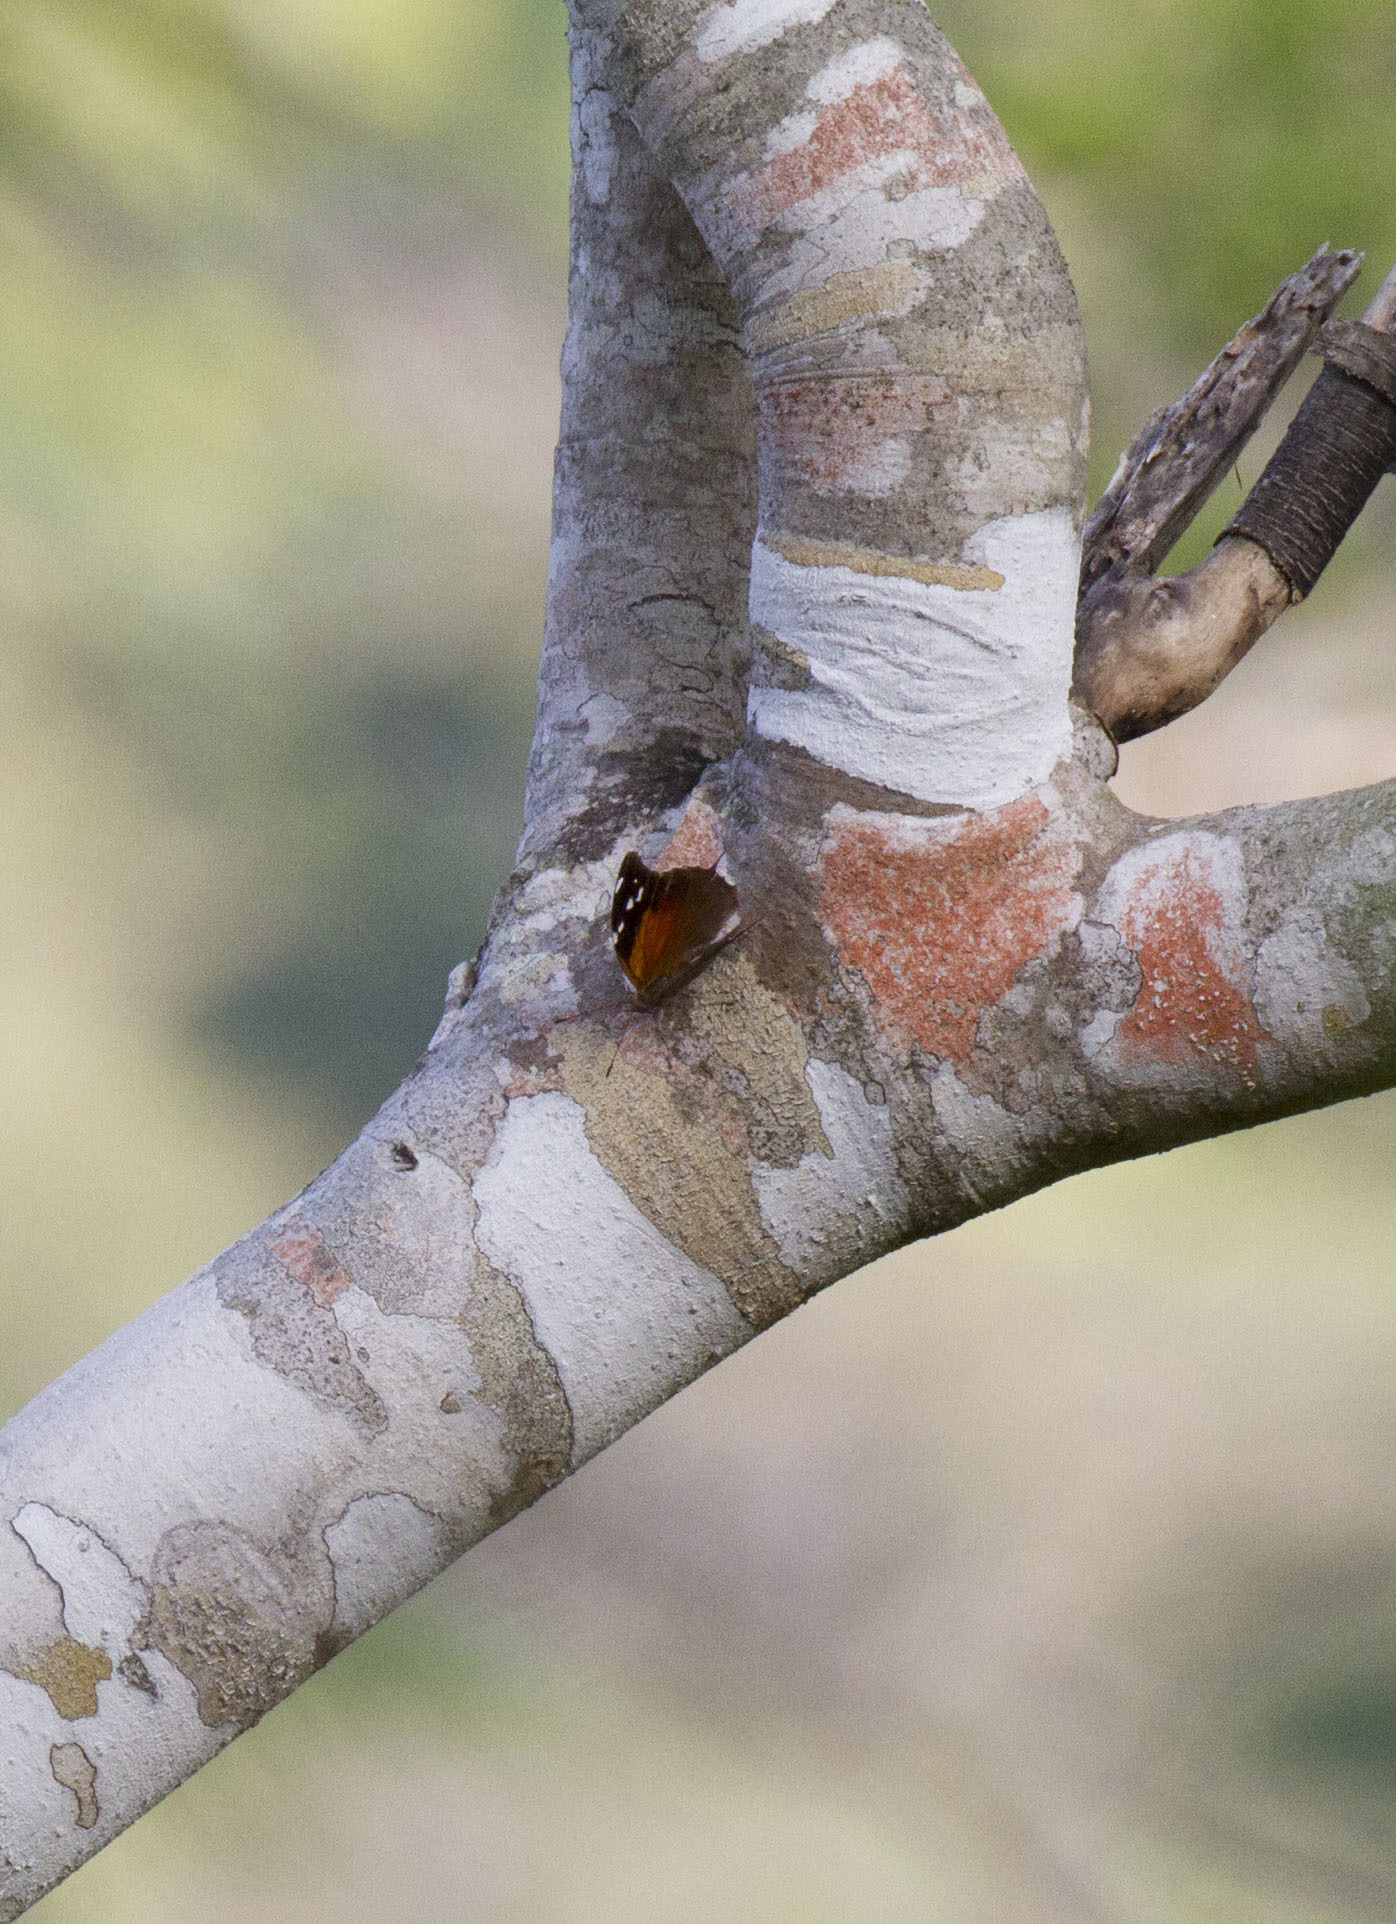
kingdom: Animalia
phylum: Arthropoda
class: Insecta
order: Lepidoptera
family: Nymphalidae
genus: Coea
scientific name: Coea acheronta
